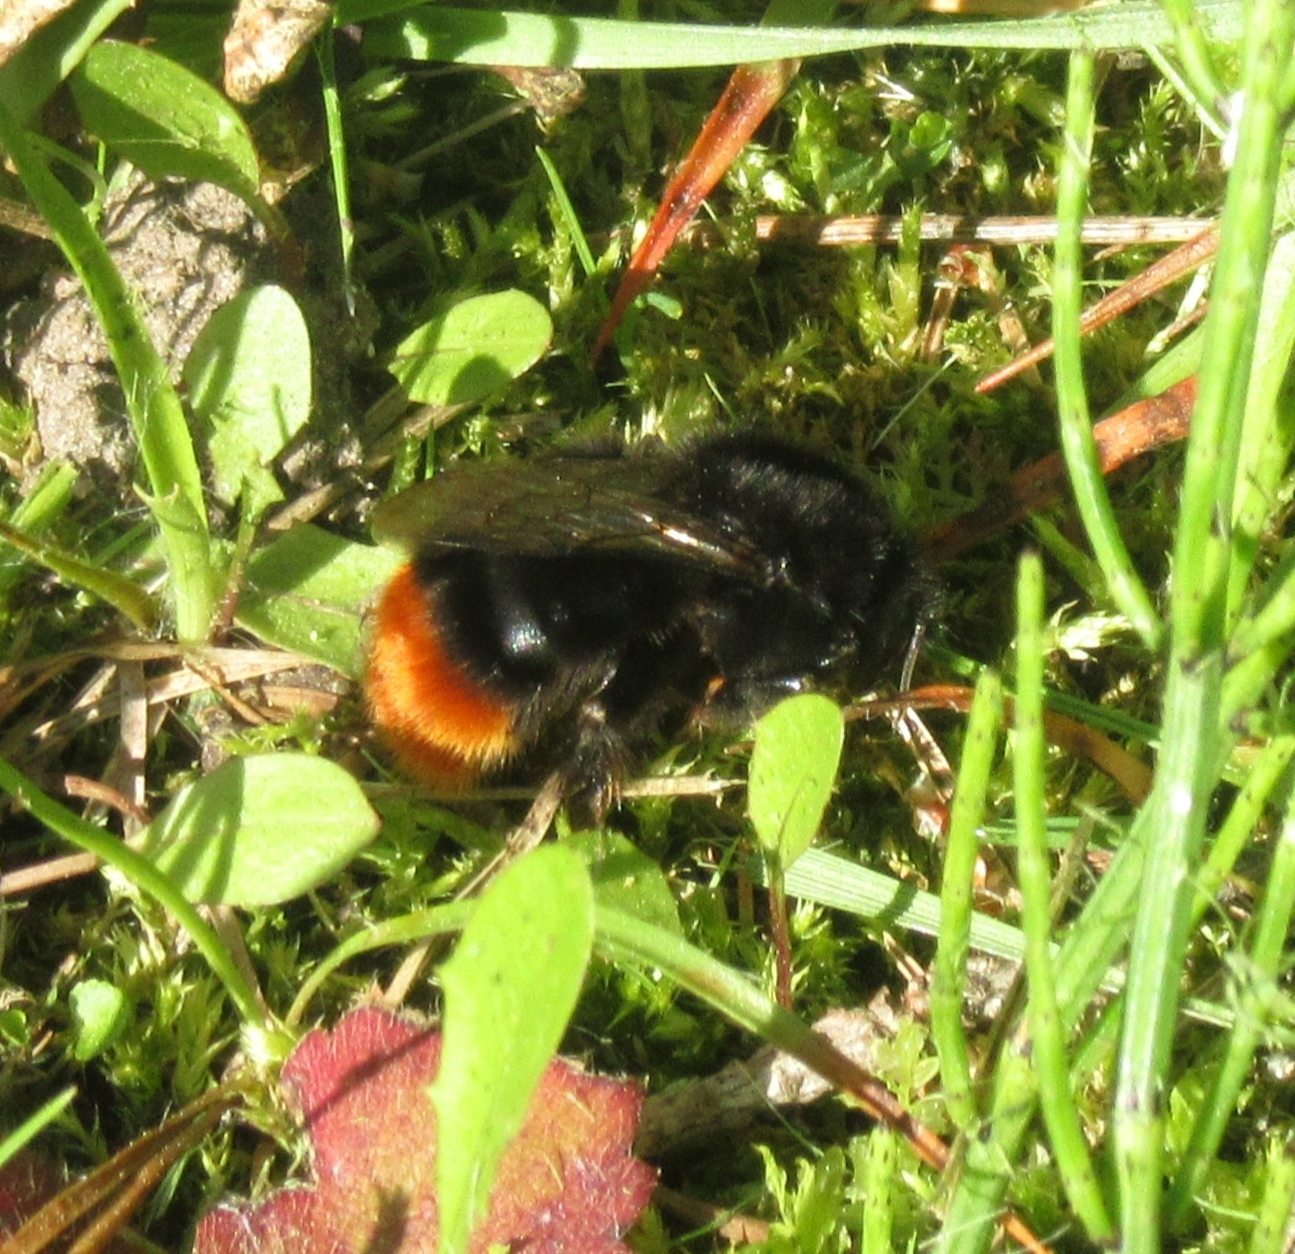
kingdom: Animalia
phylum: Arthropoda
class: Insecta
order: Hymenoptera
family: Apidae
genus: Bombus
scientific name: Bombus lapidarius
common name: Large red-tailed humble-bee
